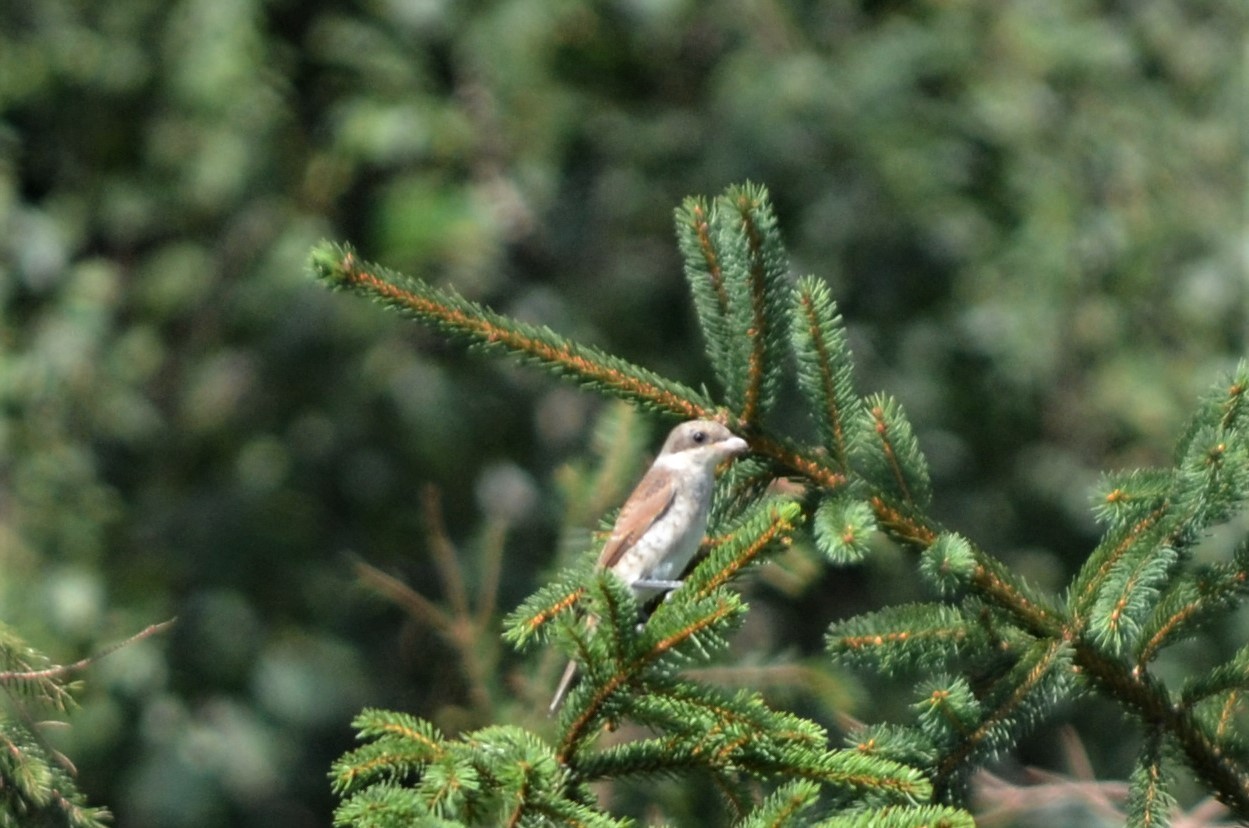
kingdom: Animalia
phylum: Chordata
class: Aves
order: Passeriformes
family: Laniidae
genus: Lanius
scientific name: Lanius collurio
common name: Red-backed shrike
